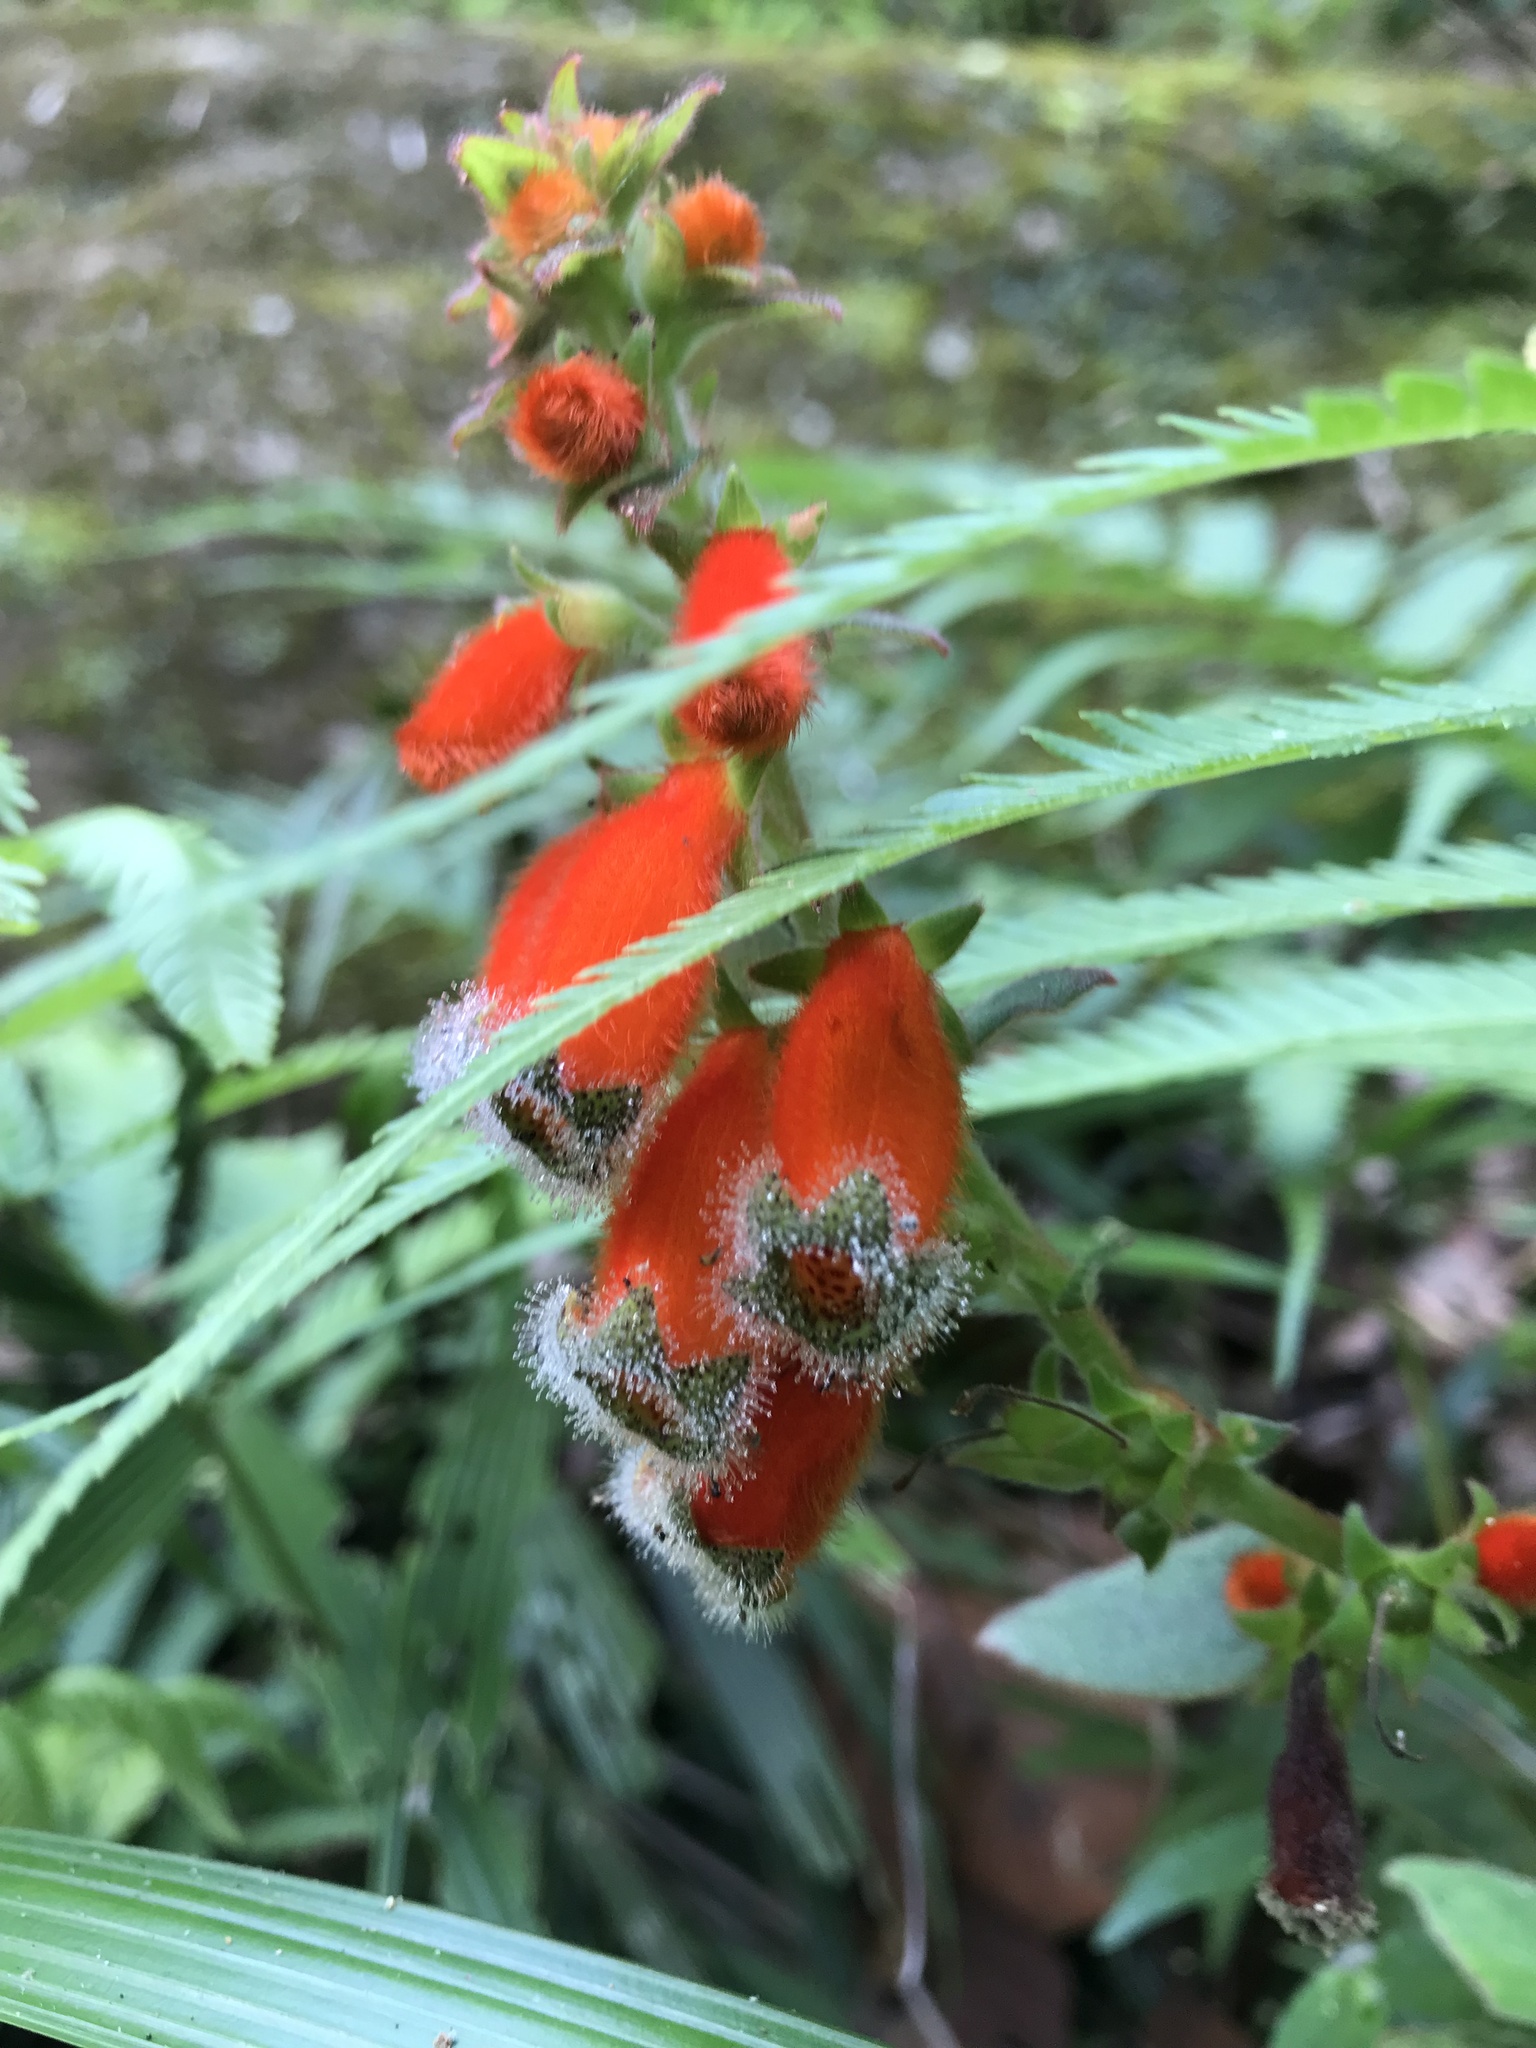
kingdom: Plantae
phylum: Tracheophyta
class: Magnoliopsida
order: Lamiales
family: Gesneriaceae
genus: Kohleria
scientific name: Kohleria stuebeliana
